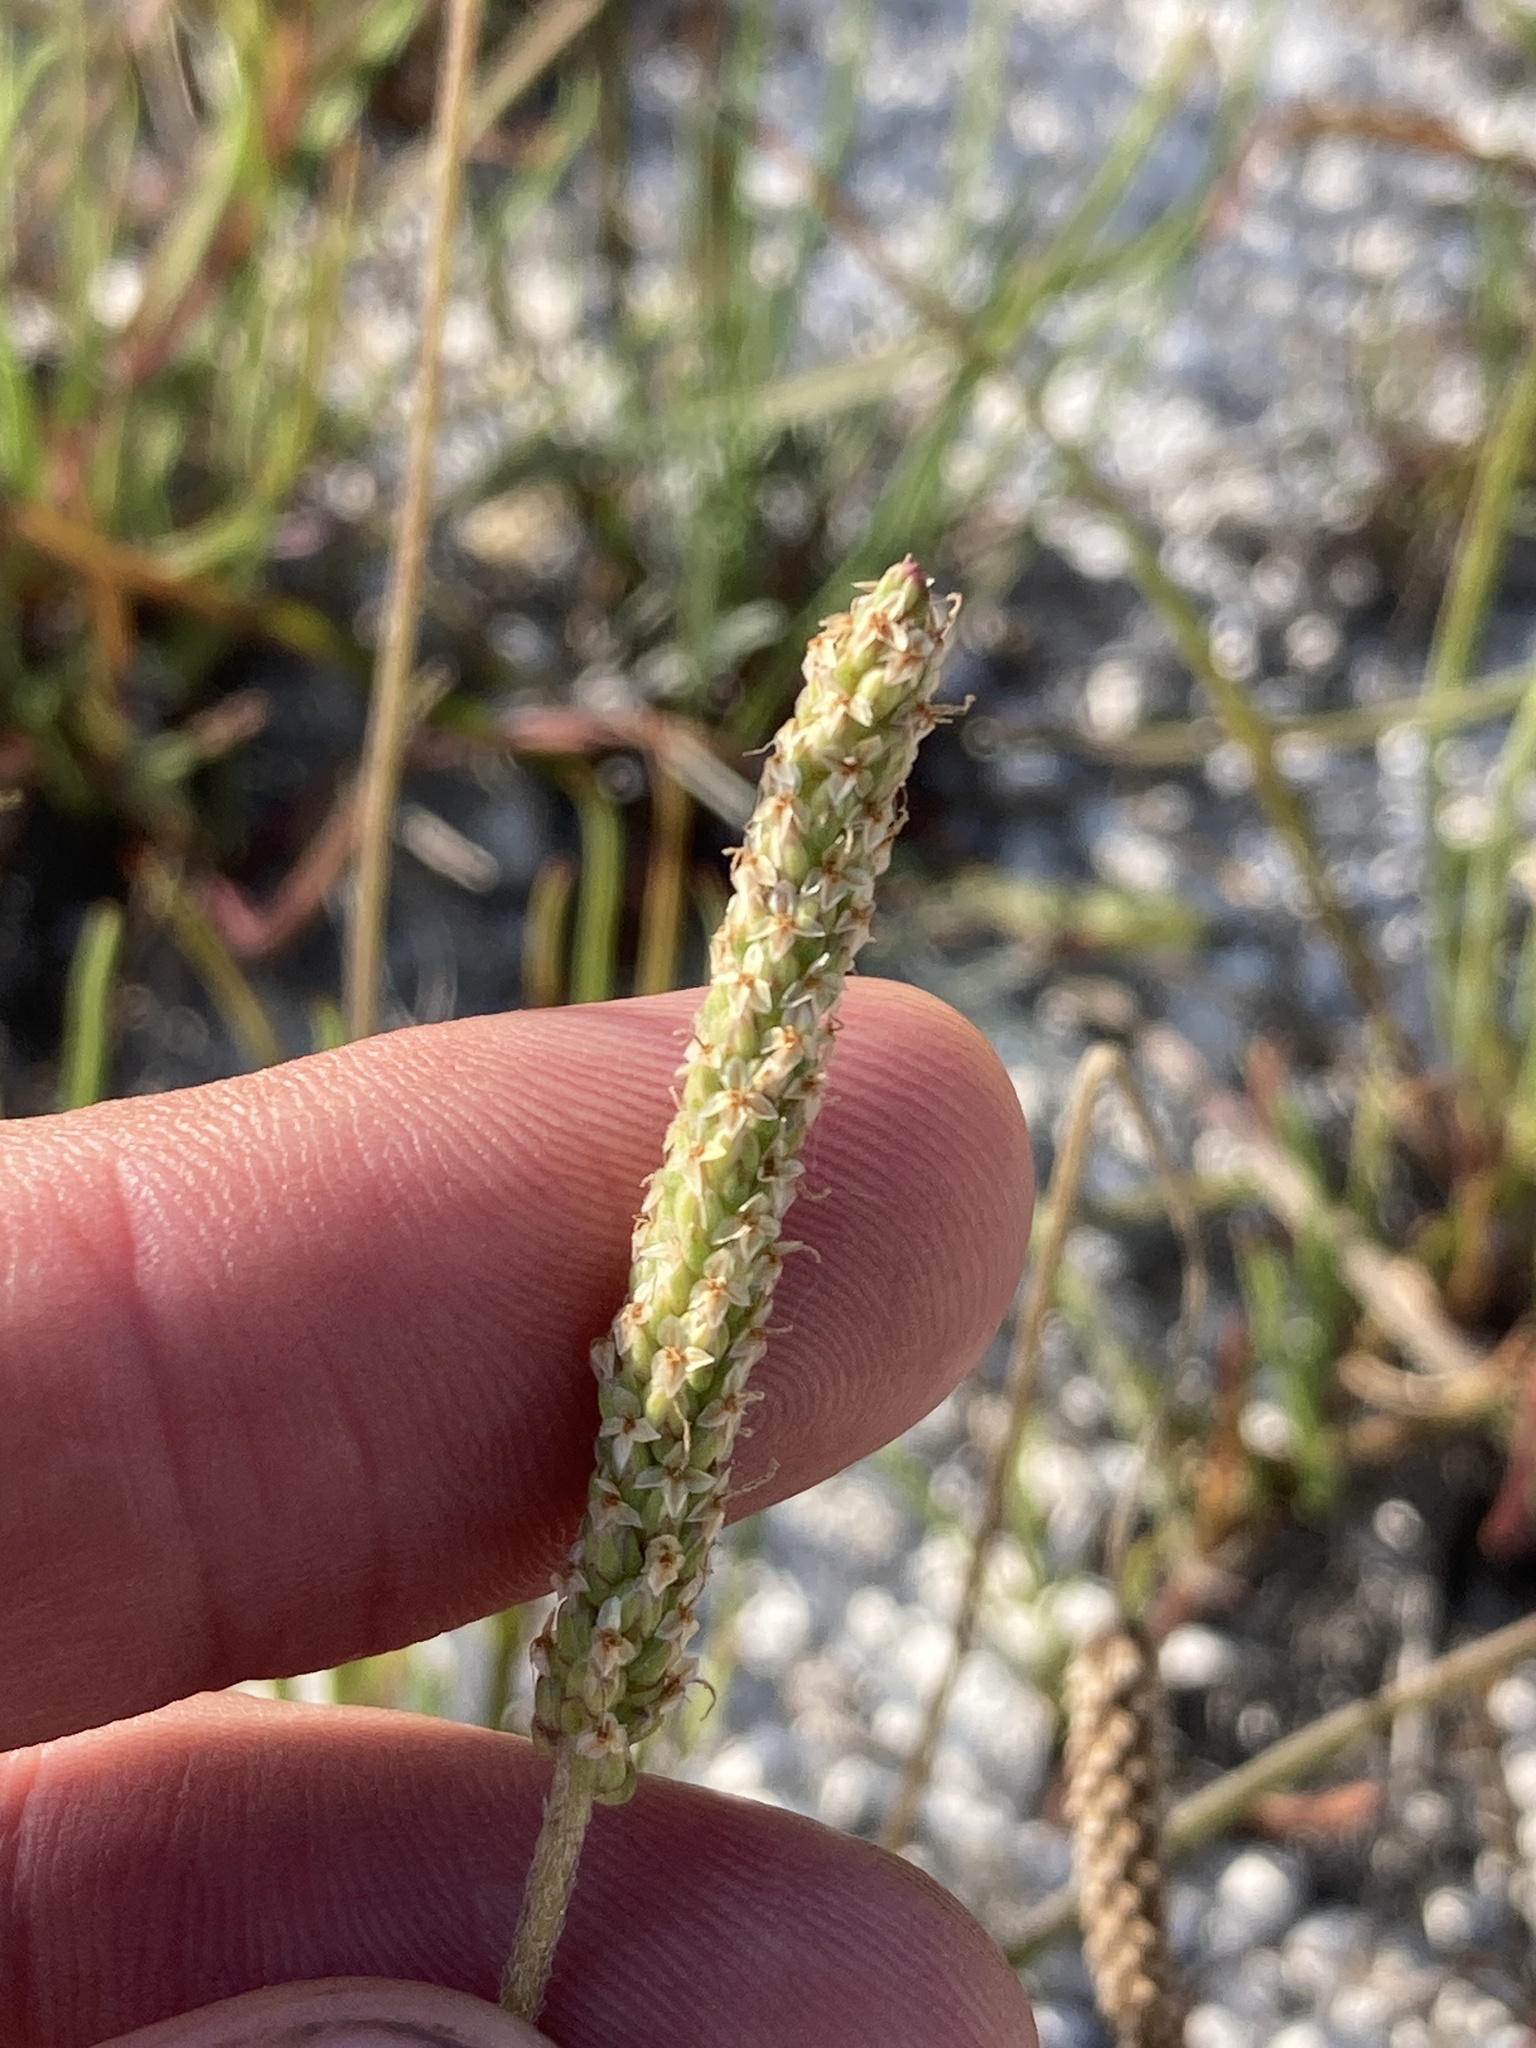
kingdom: Plantae
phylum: Tracheophyta
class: Magnoliopsida
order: Lamiales
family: Plantaginaceae
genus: Plantago
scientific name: Plantago salsa
